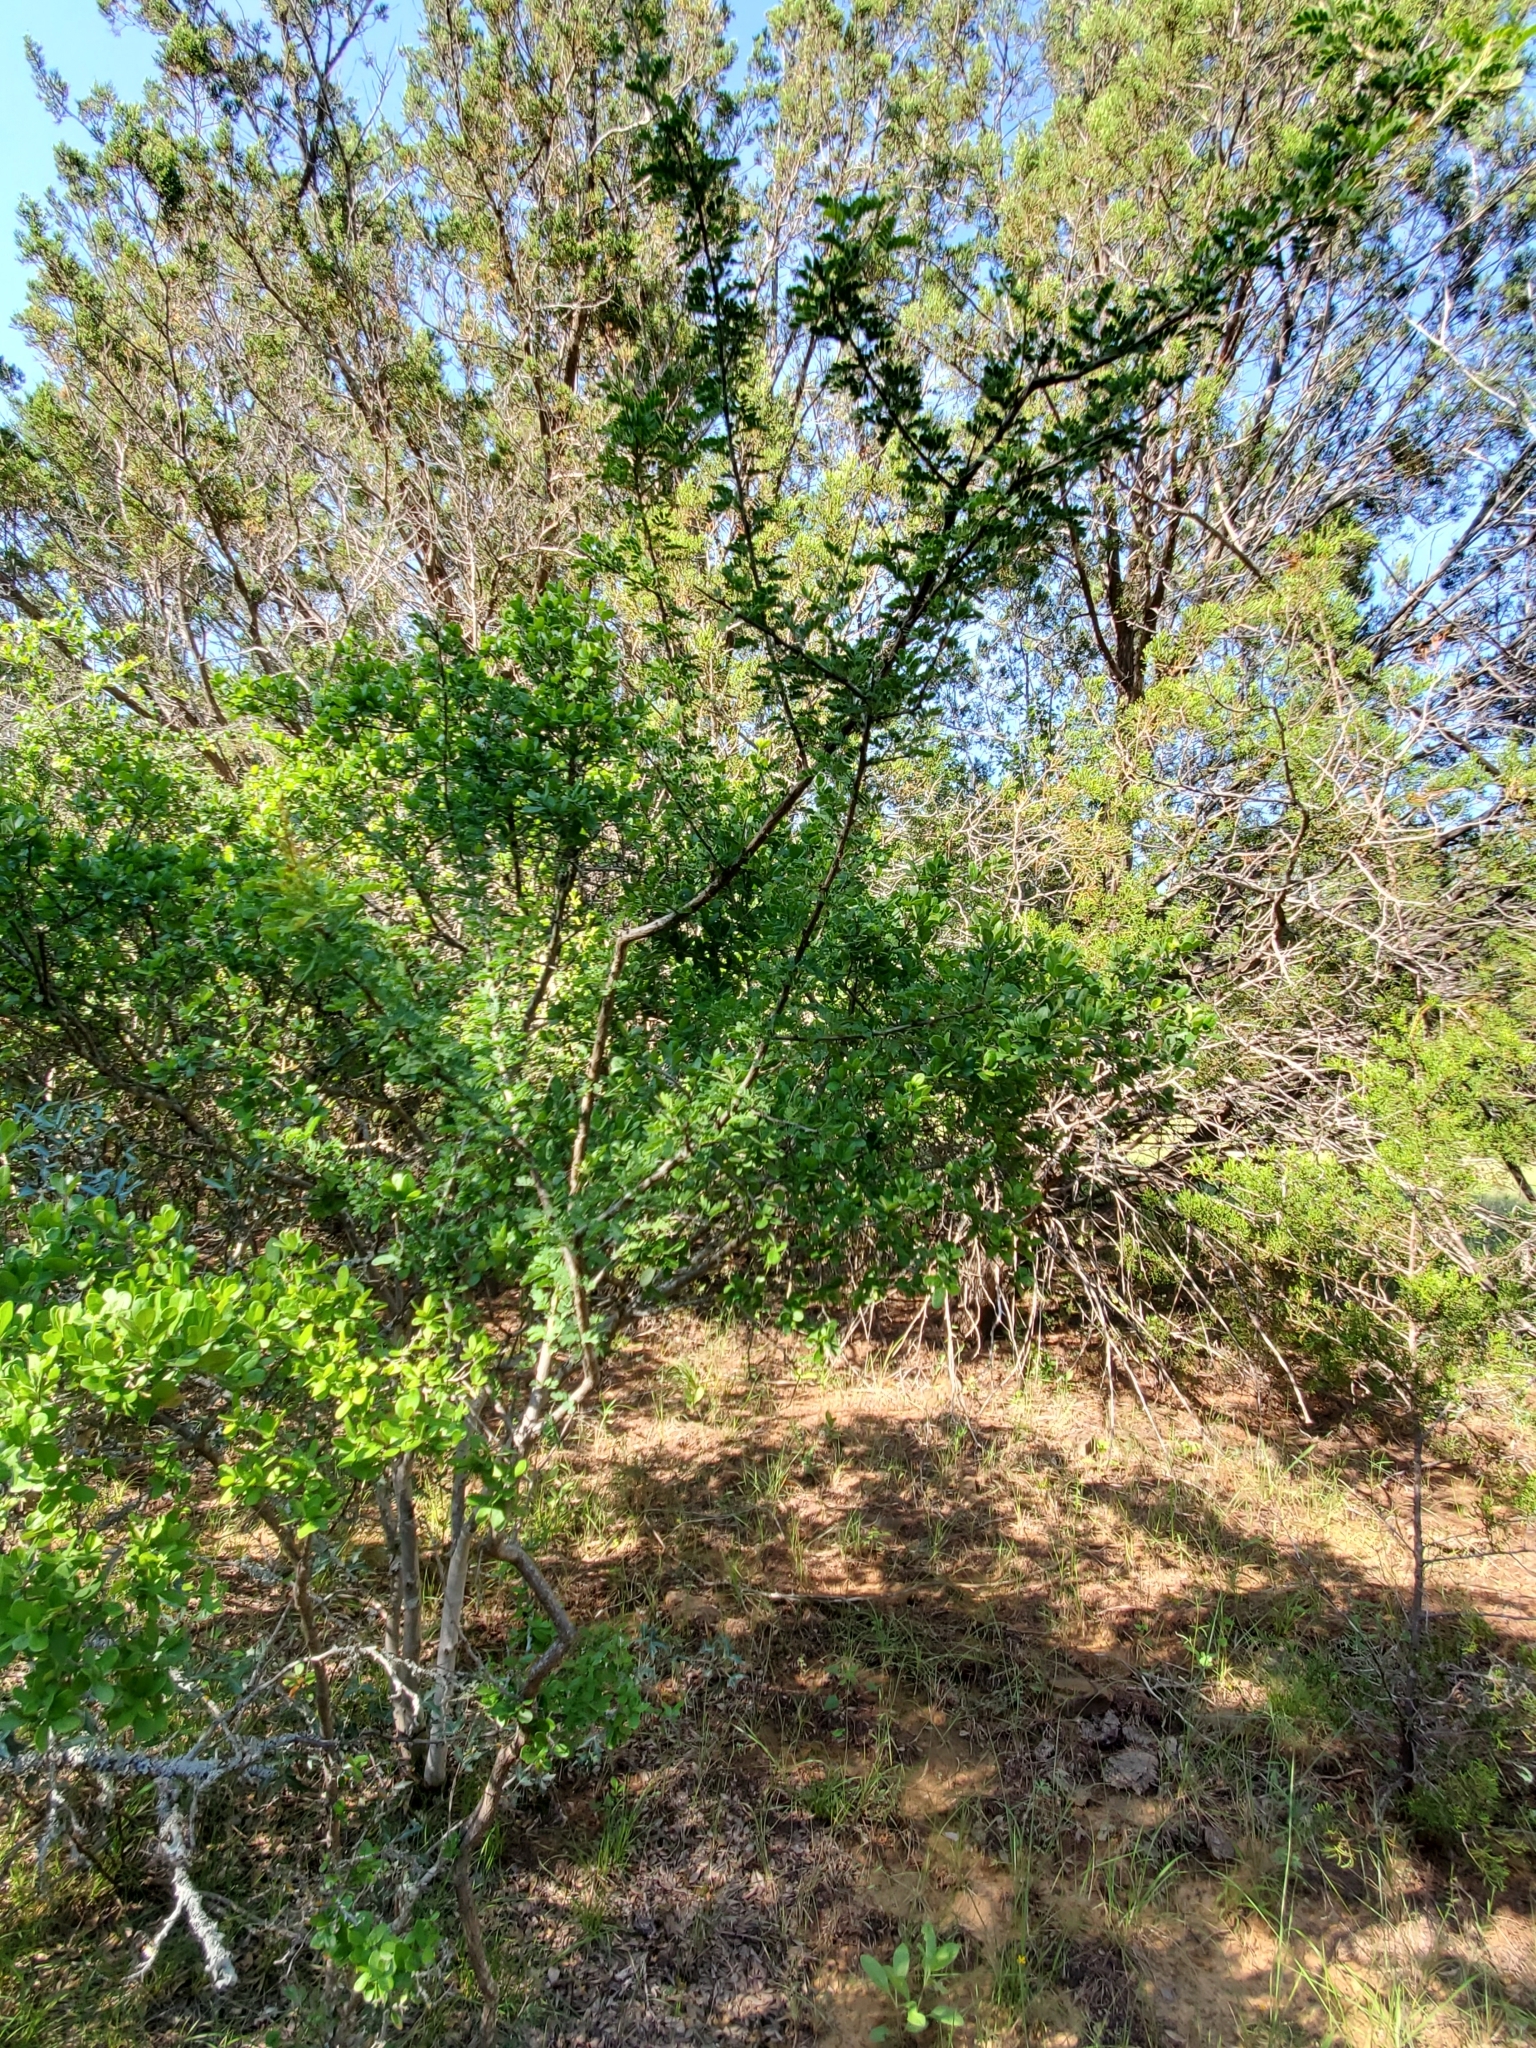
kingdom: Plantae
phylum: Tracheophyta
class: Magnoliopsida
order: Fabales
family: Fabaceae
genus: Senegalia
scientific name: Senegalia roemeriana
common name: Roemer's acacia
